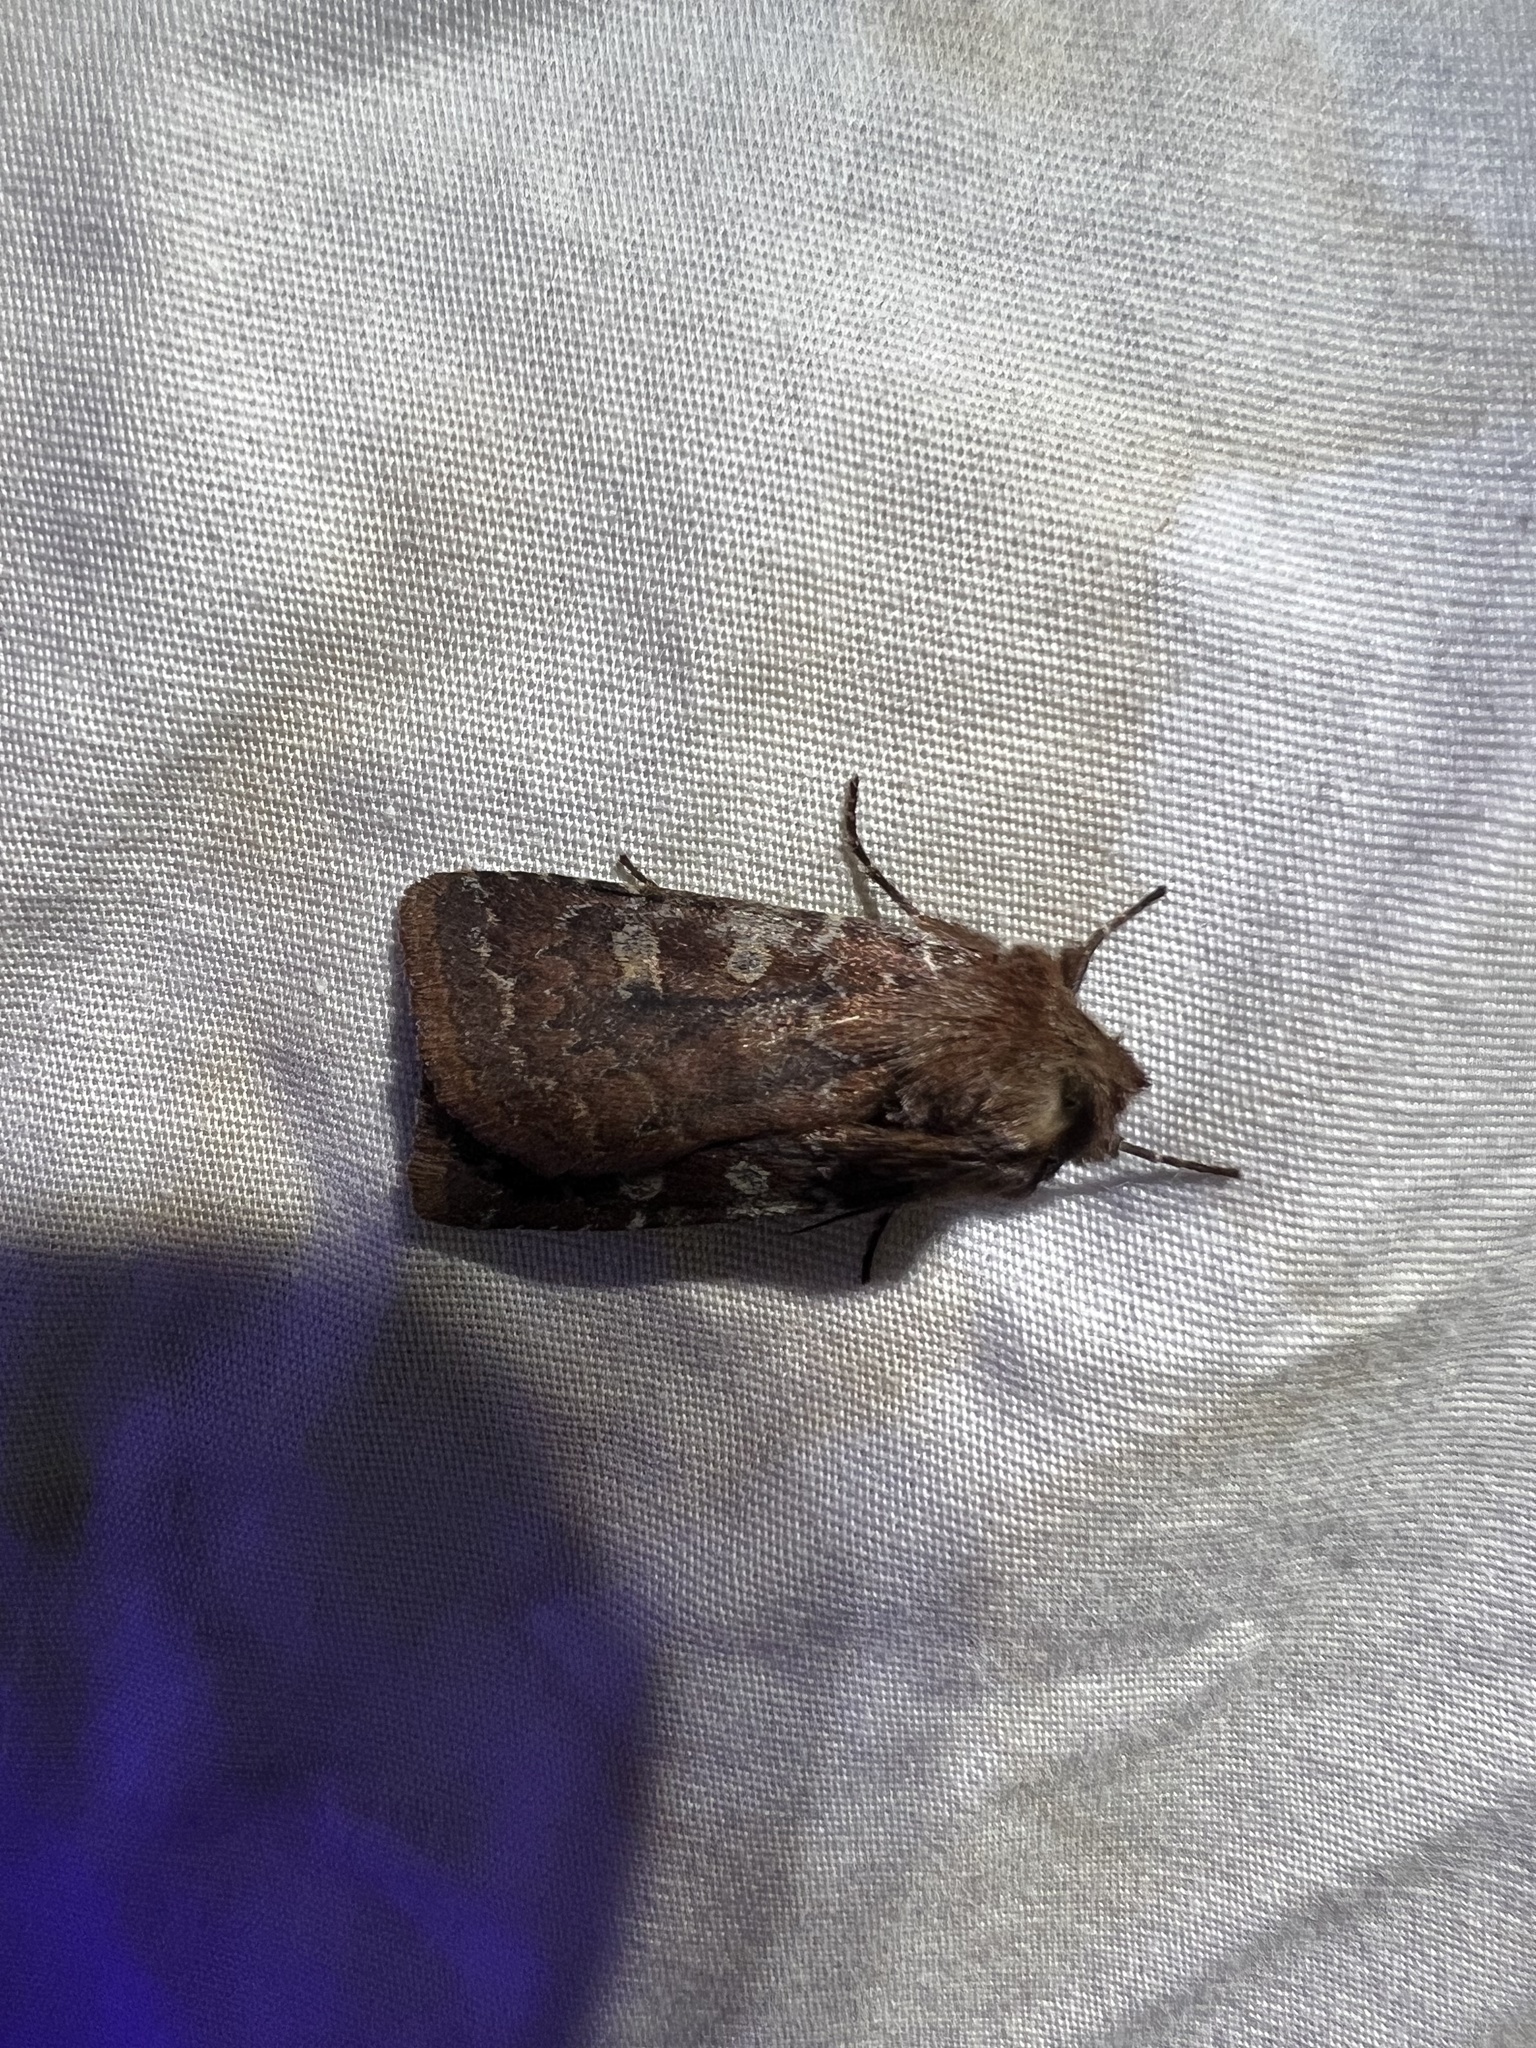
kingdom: Animalia
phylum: Arthropoda
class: Insecta
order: Lepidoptera
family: Noctuidae
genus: Cerastis
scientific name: Cerastis tenebrifera
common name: Reddish speckled dart
